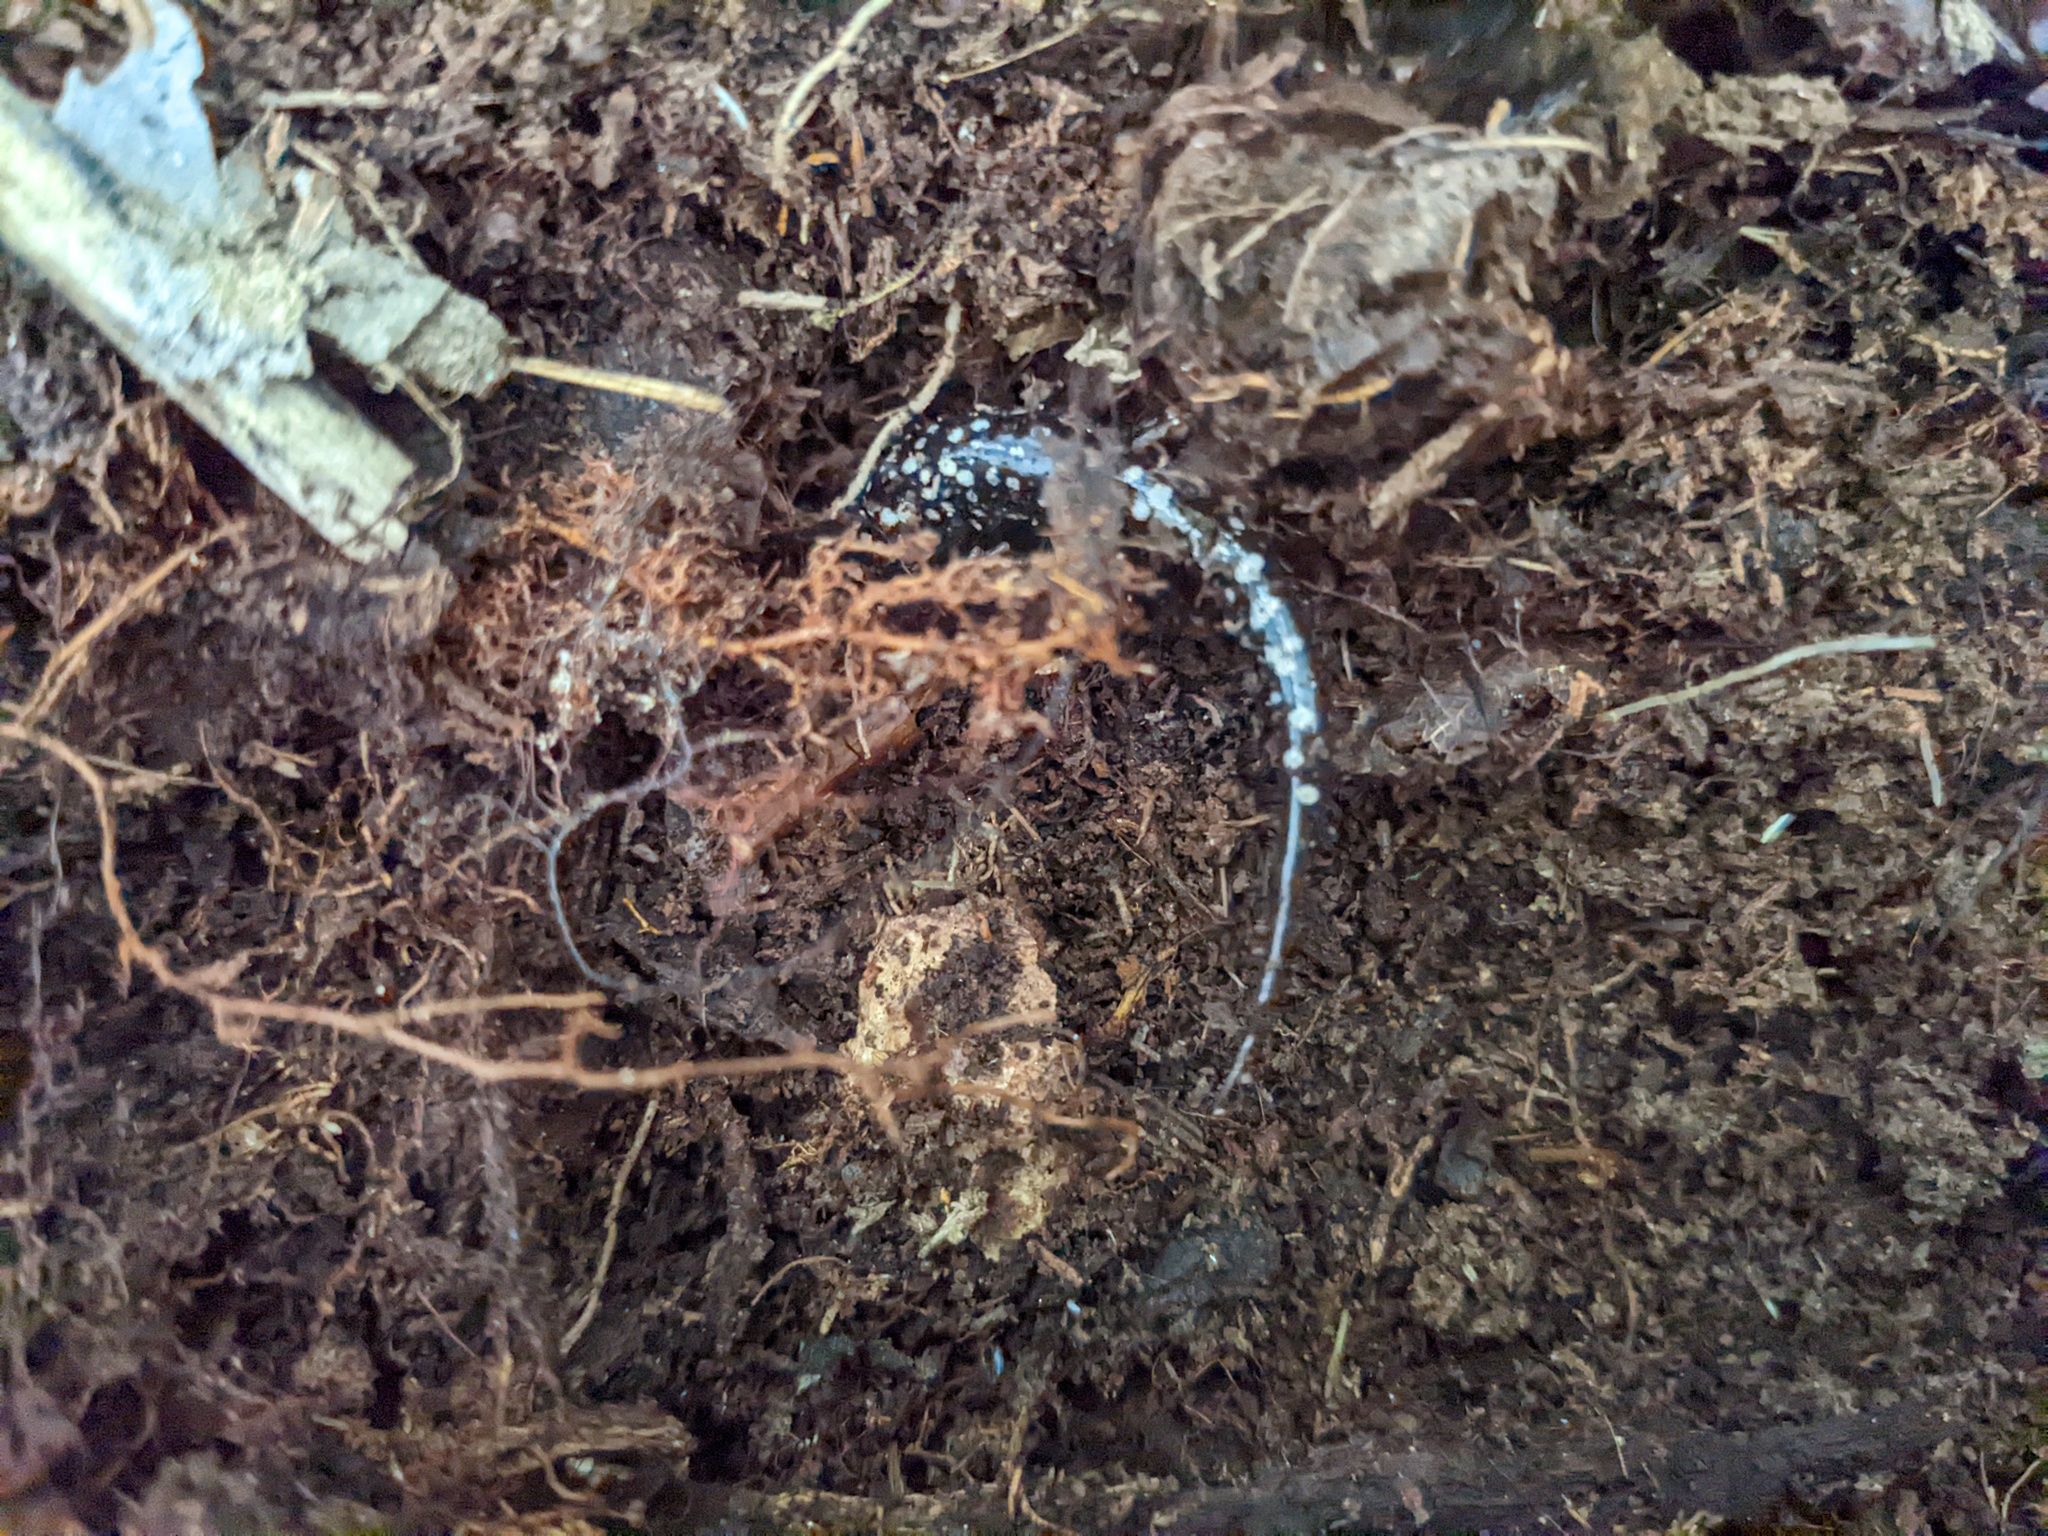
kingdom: Animalia
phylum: Chordata
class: Amphibia
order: Caudata
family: Plethodontidae
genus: Plethodon
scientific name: Plethodon glutinosus
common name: Northern slimy salamander
